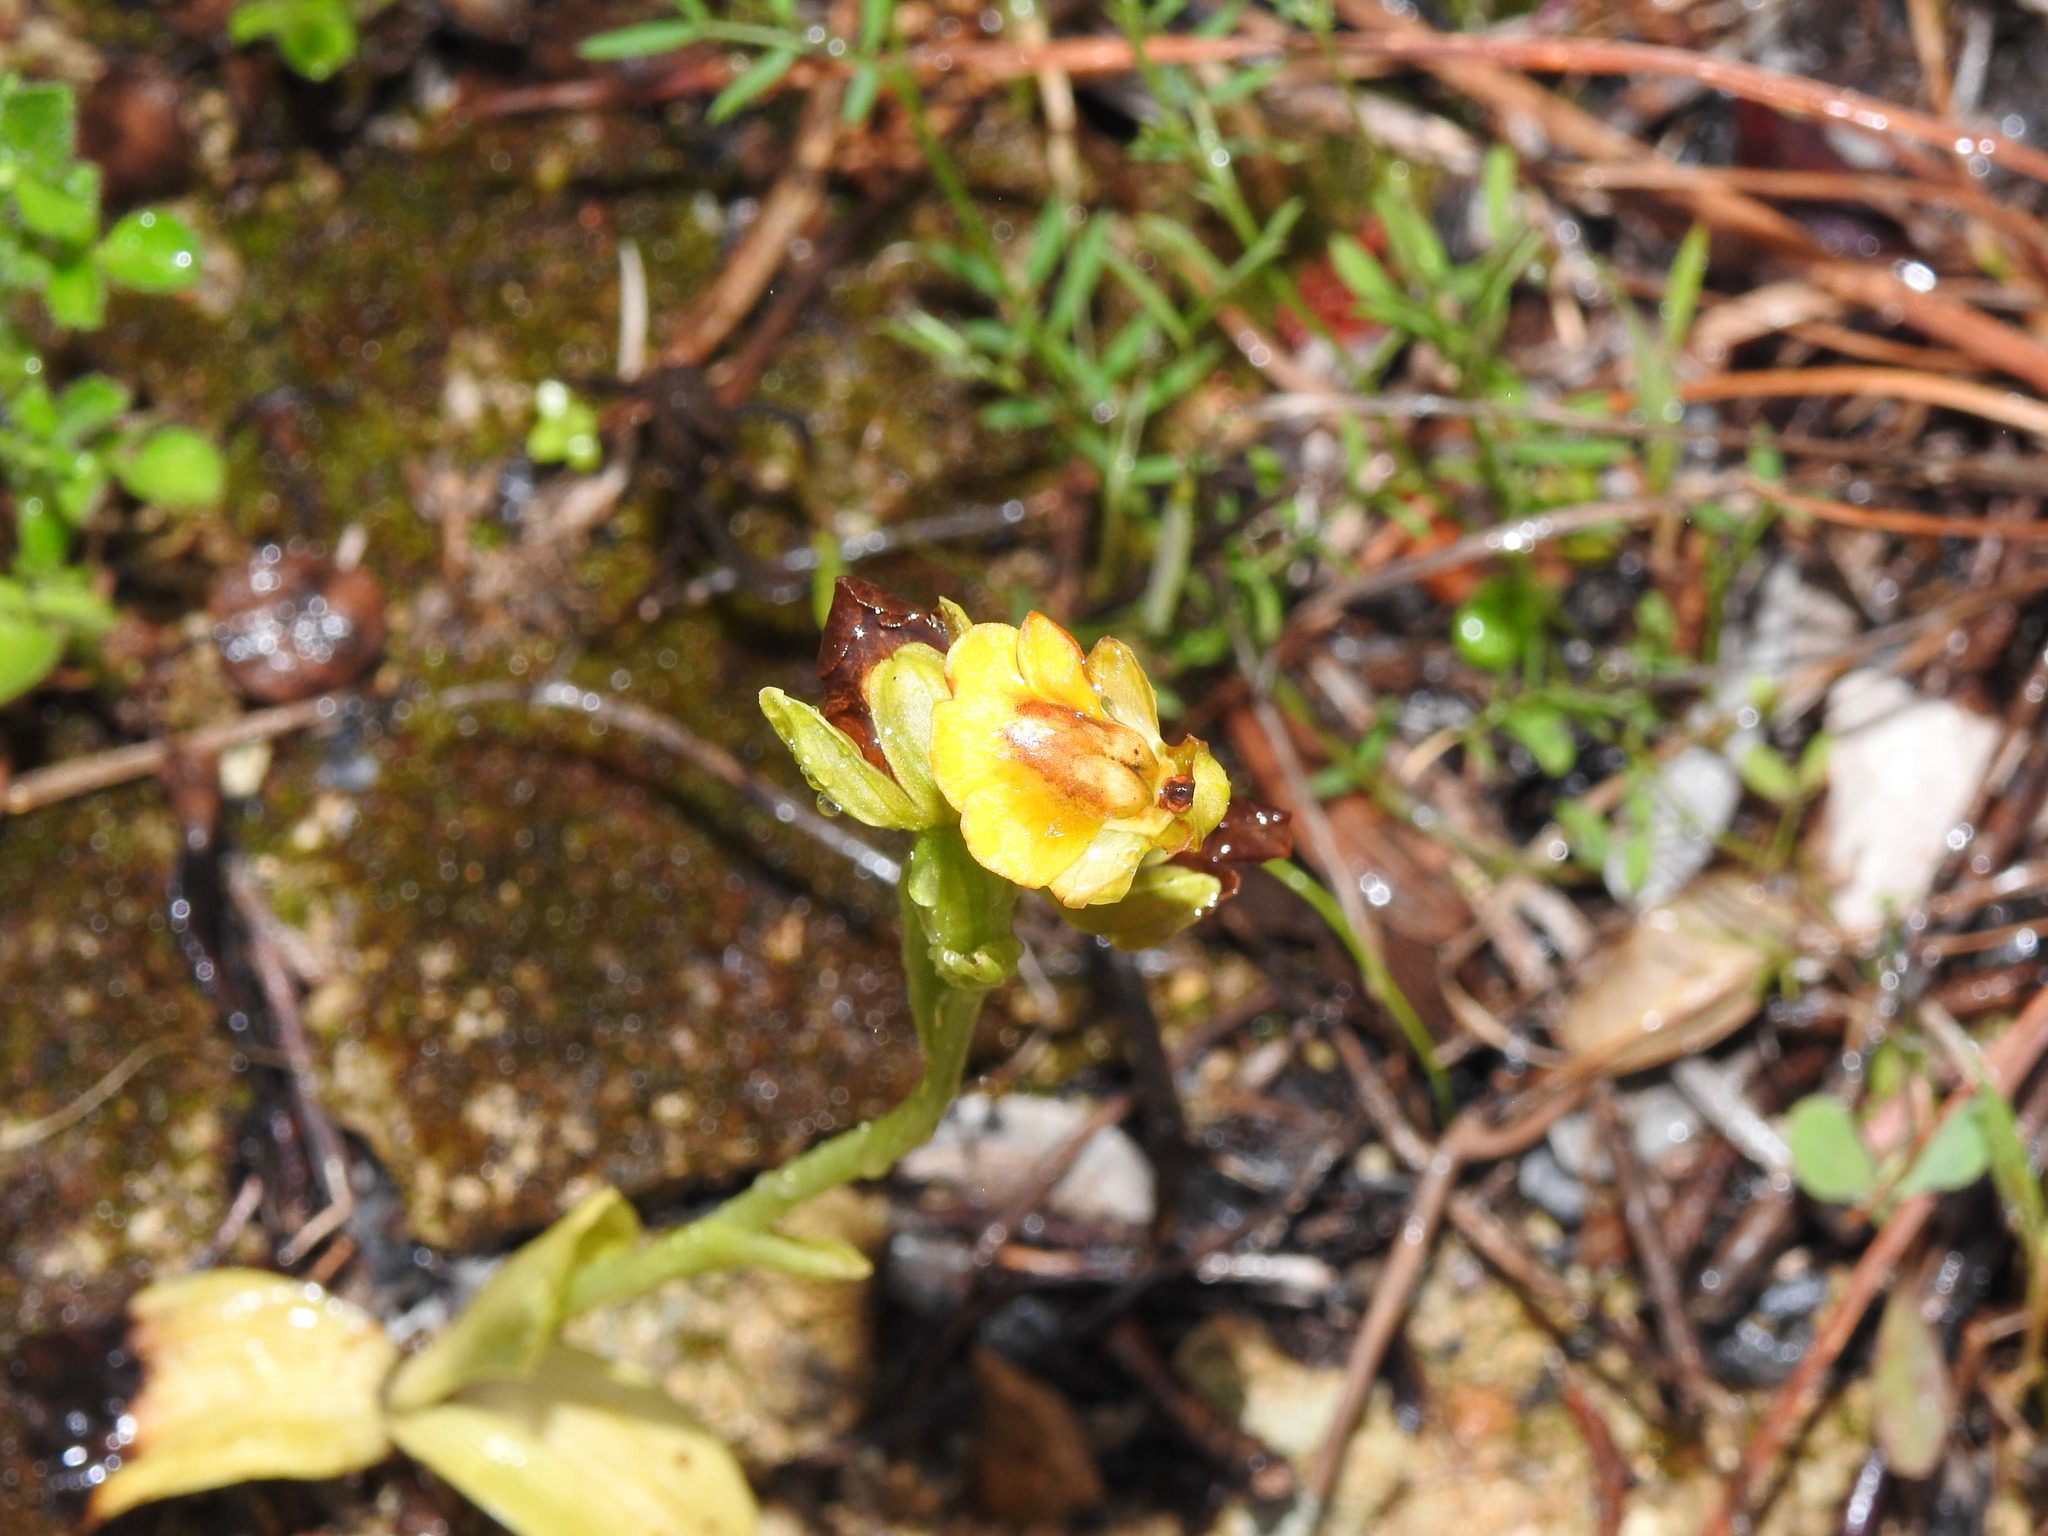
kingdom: Plantae
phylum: Tracheophyta
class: Liliopsida
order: Asparagales
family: Orchidaceae
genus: Ophrys
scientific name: Ophrys lutea
